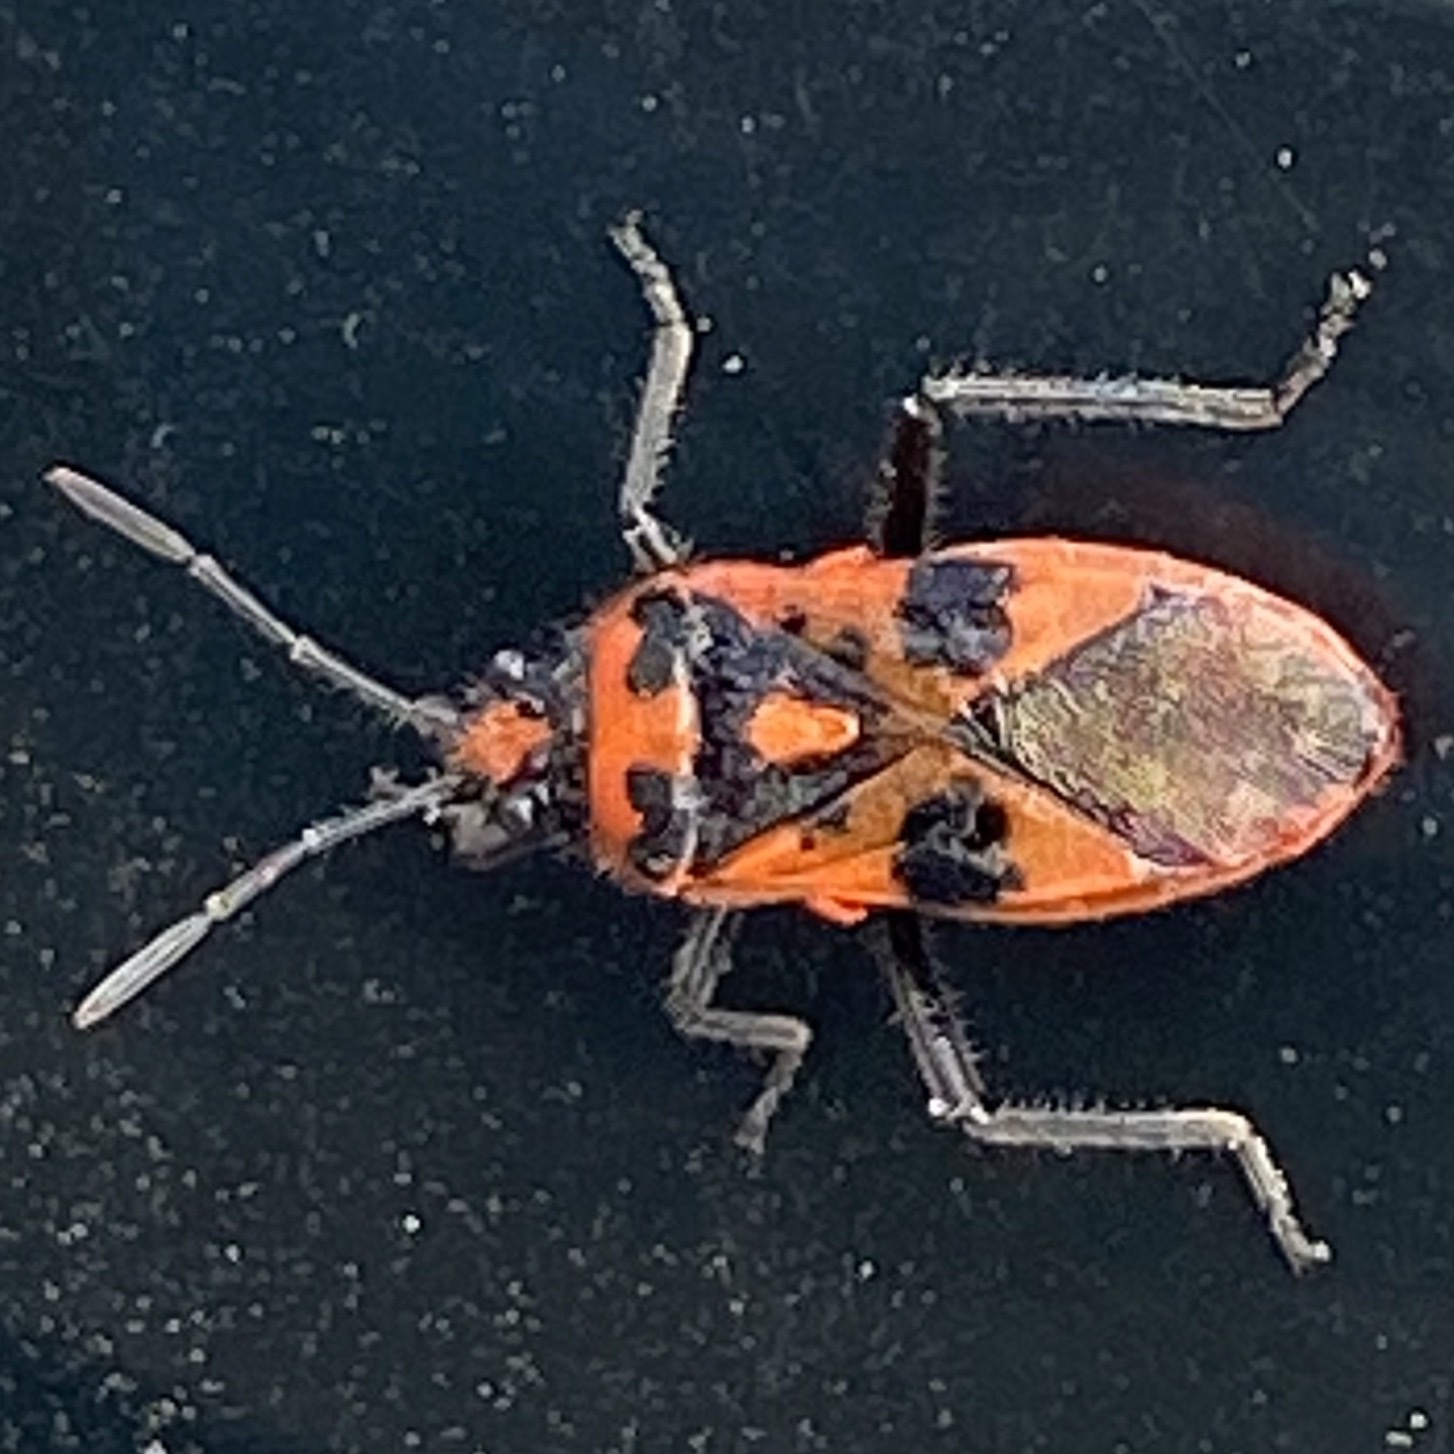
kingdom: Animalia
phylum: Arthropoda
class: Insecta
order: Hemiptera
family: Rhopalidae
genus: Corizus
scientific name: Corizus hyoscyami
